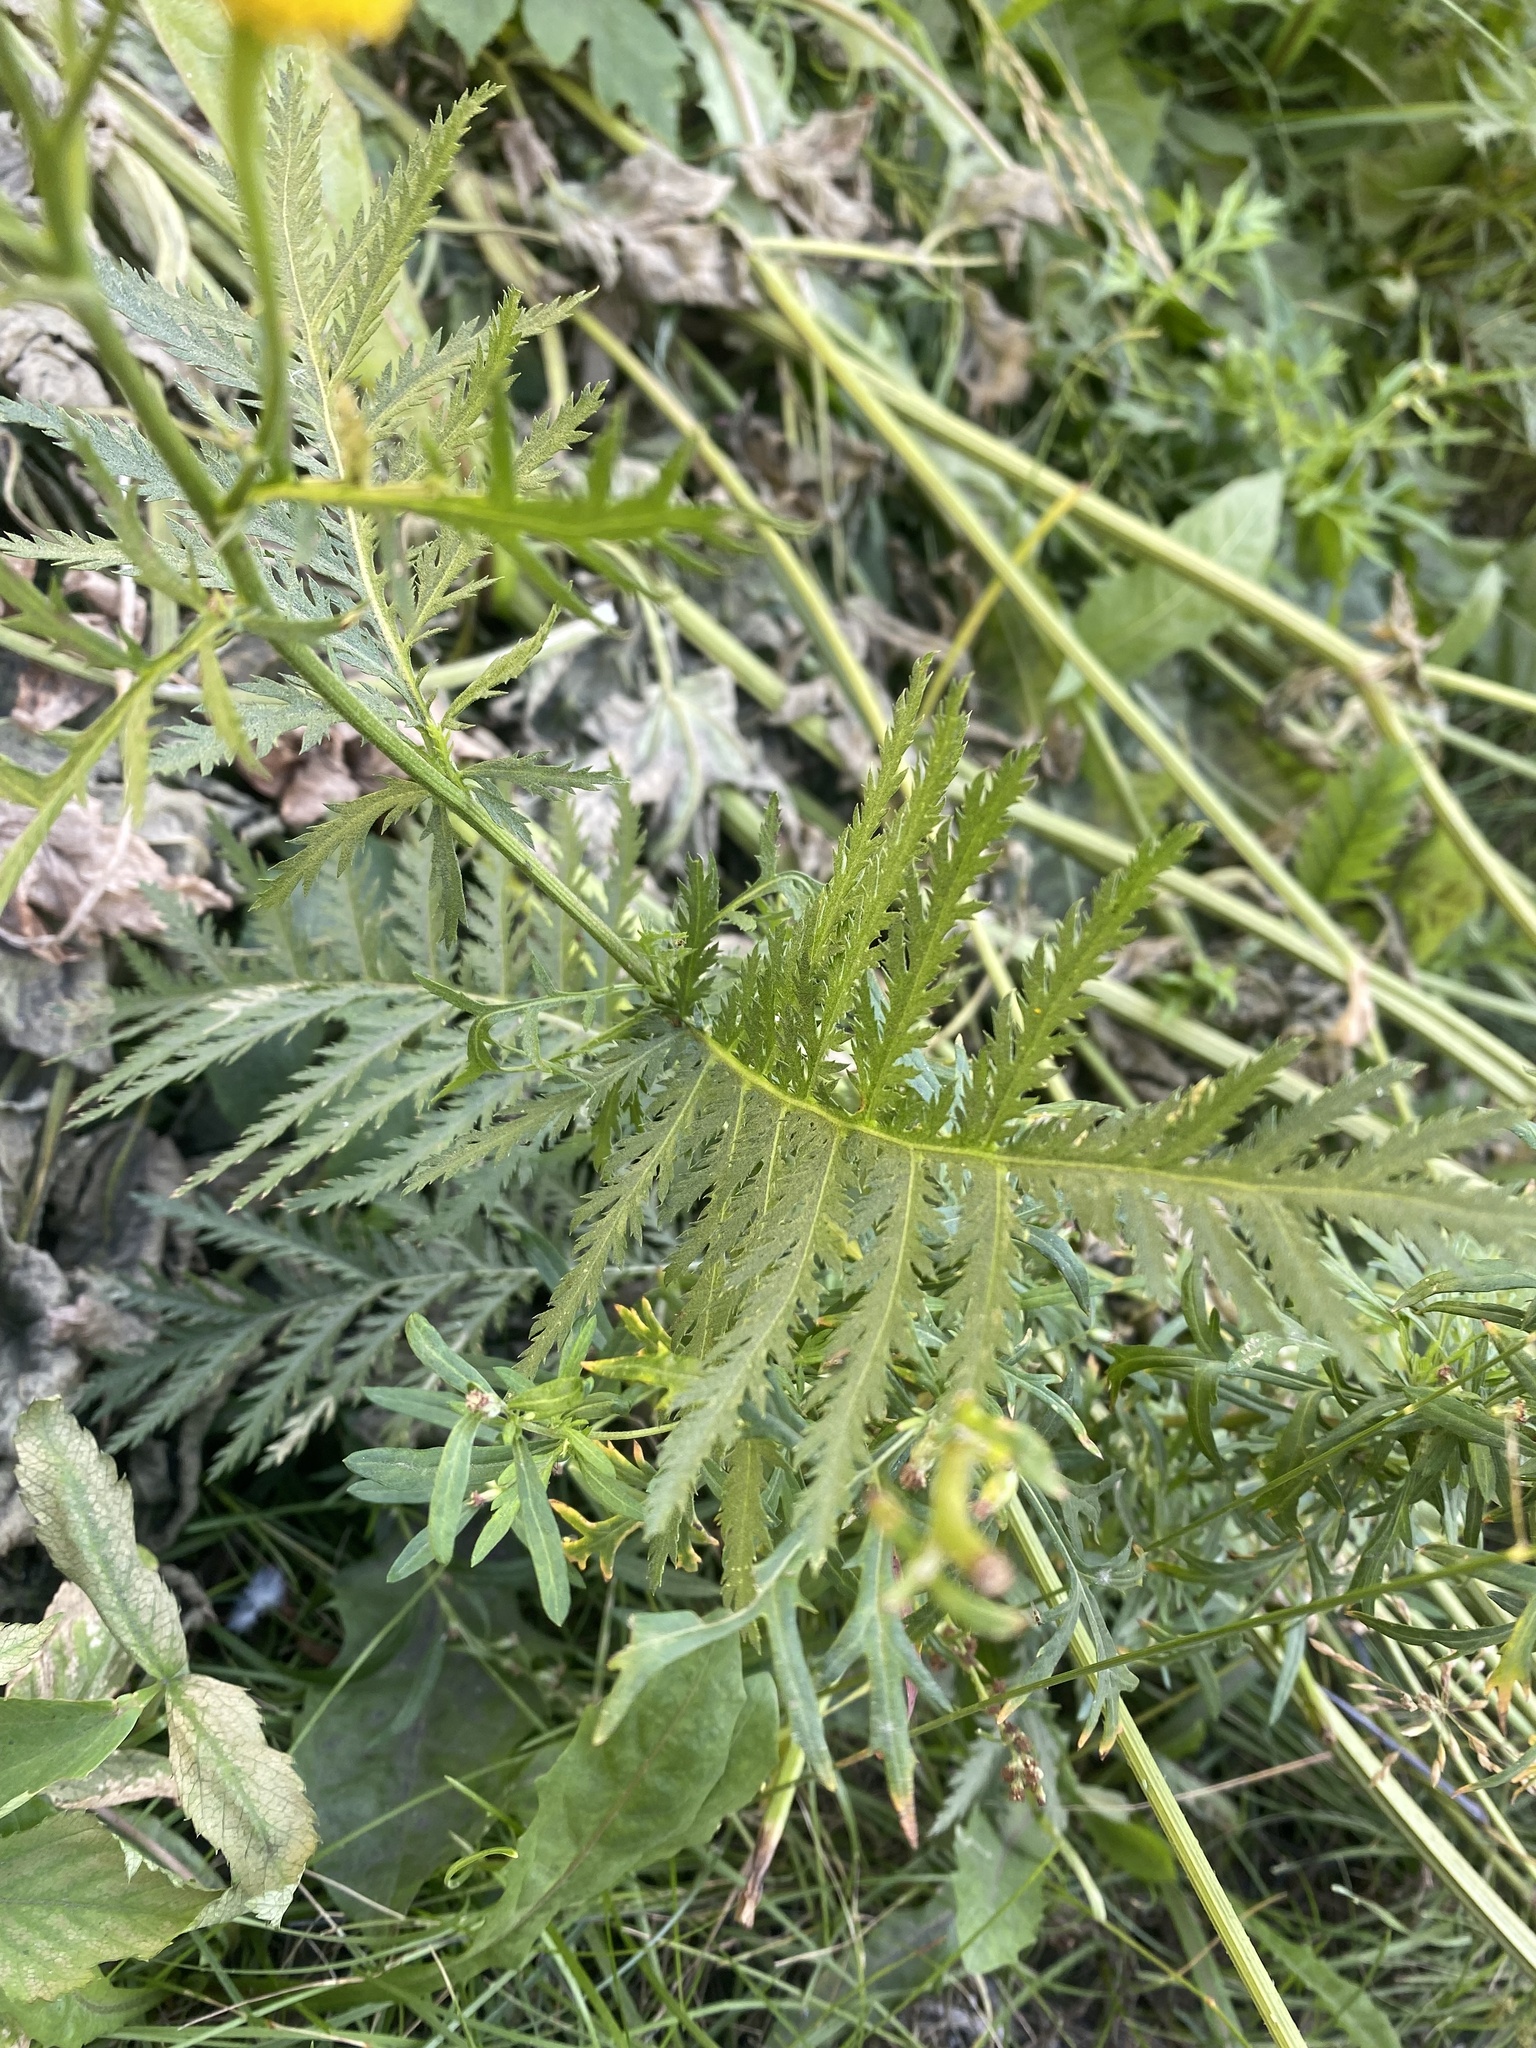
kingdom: Plantae
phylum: Tracheophyta
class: Magnoliopsida
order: Asterales
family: Asteraceae
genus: Tanacetum
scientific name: Tanacetum vulgare
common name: Common tansy
